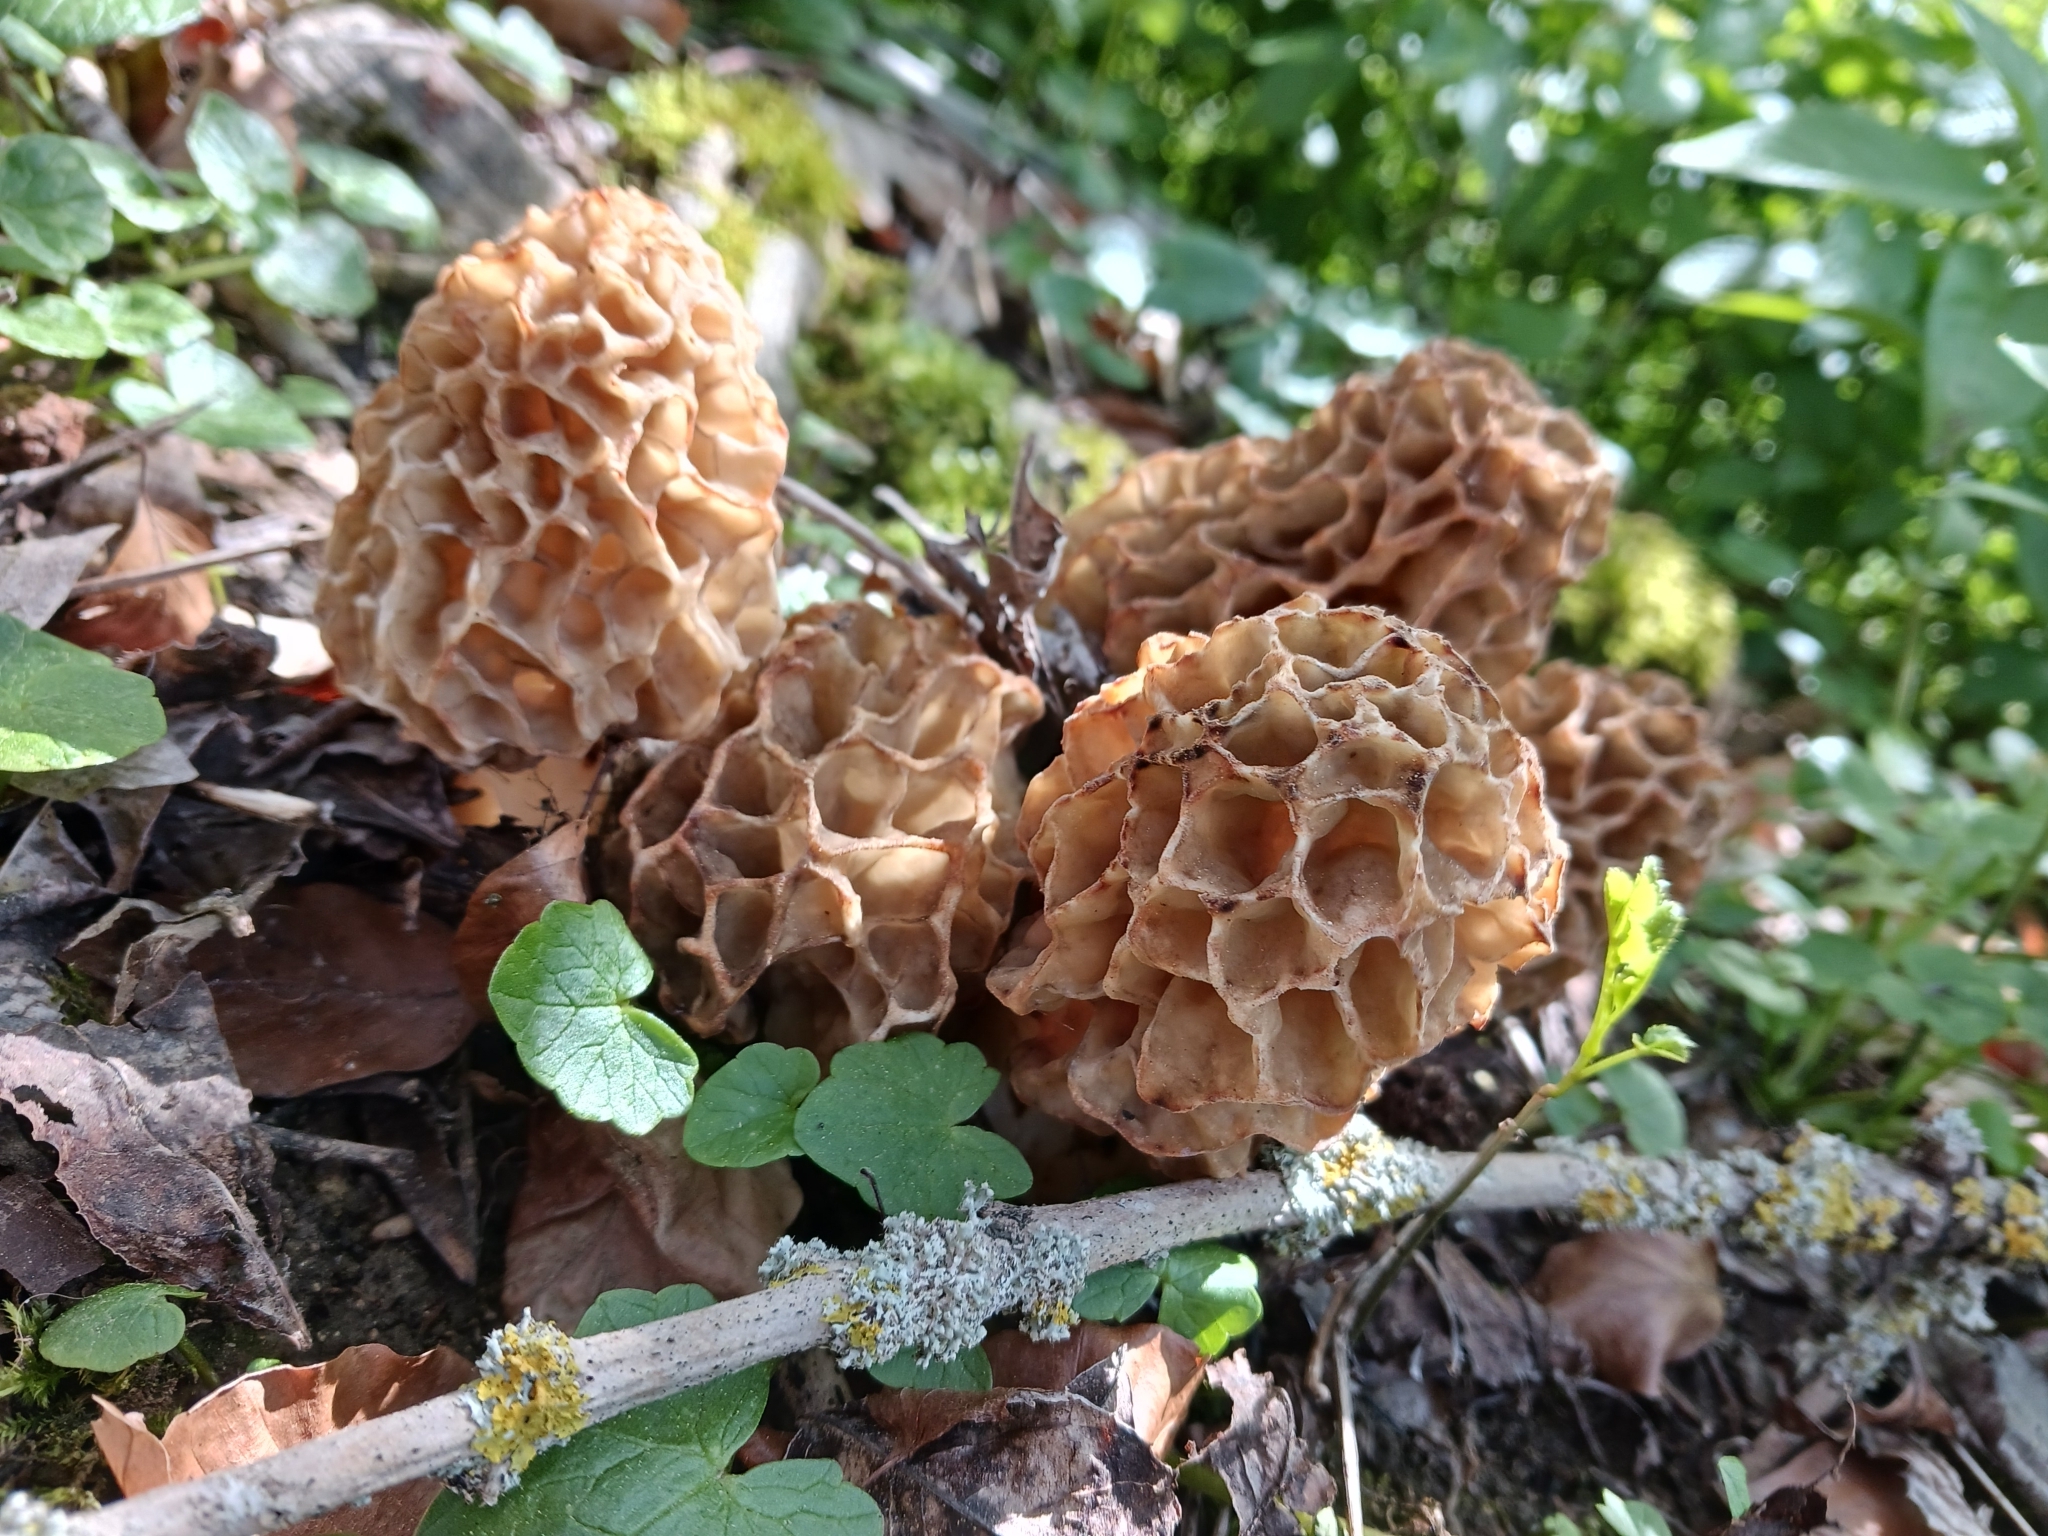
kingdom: Fungi
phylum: Ascomycota
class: Pezizomycetes
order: Pezizales
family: Morchellaceae
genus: Morchella
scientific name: Morchella esculenta
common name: Morel
